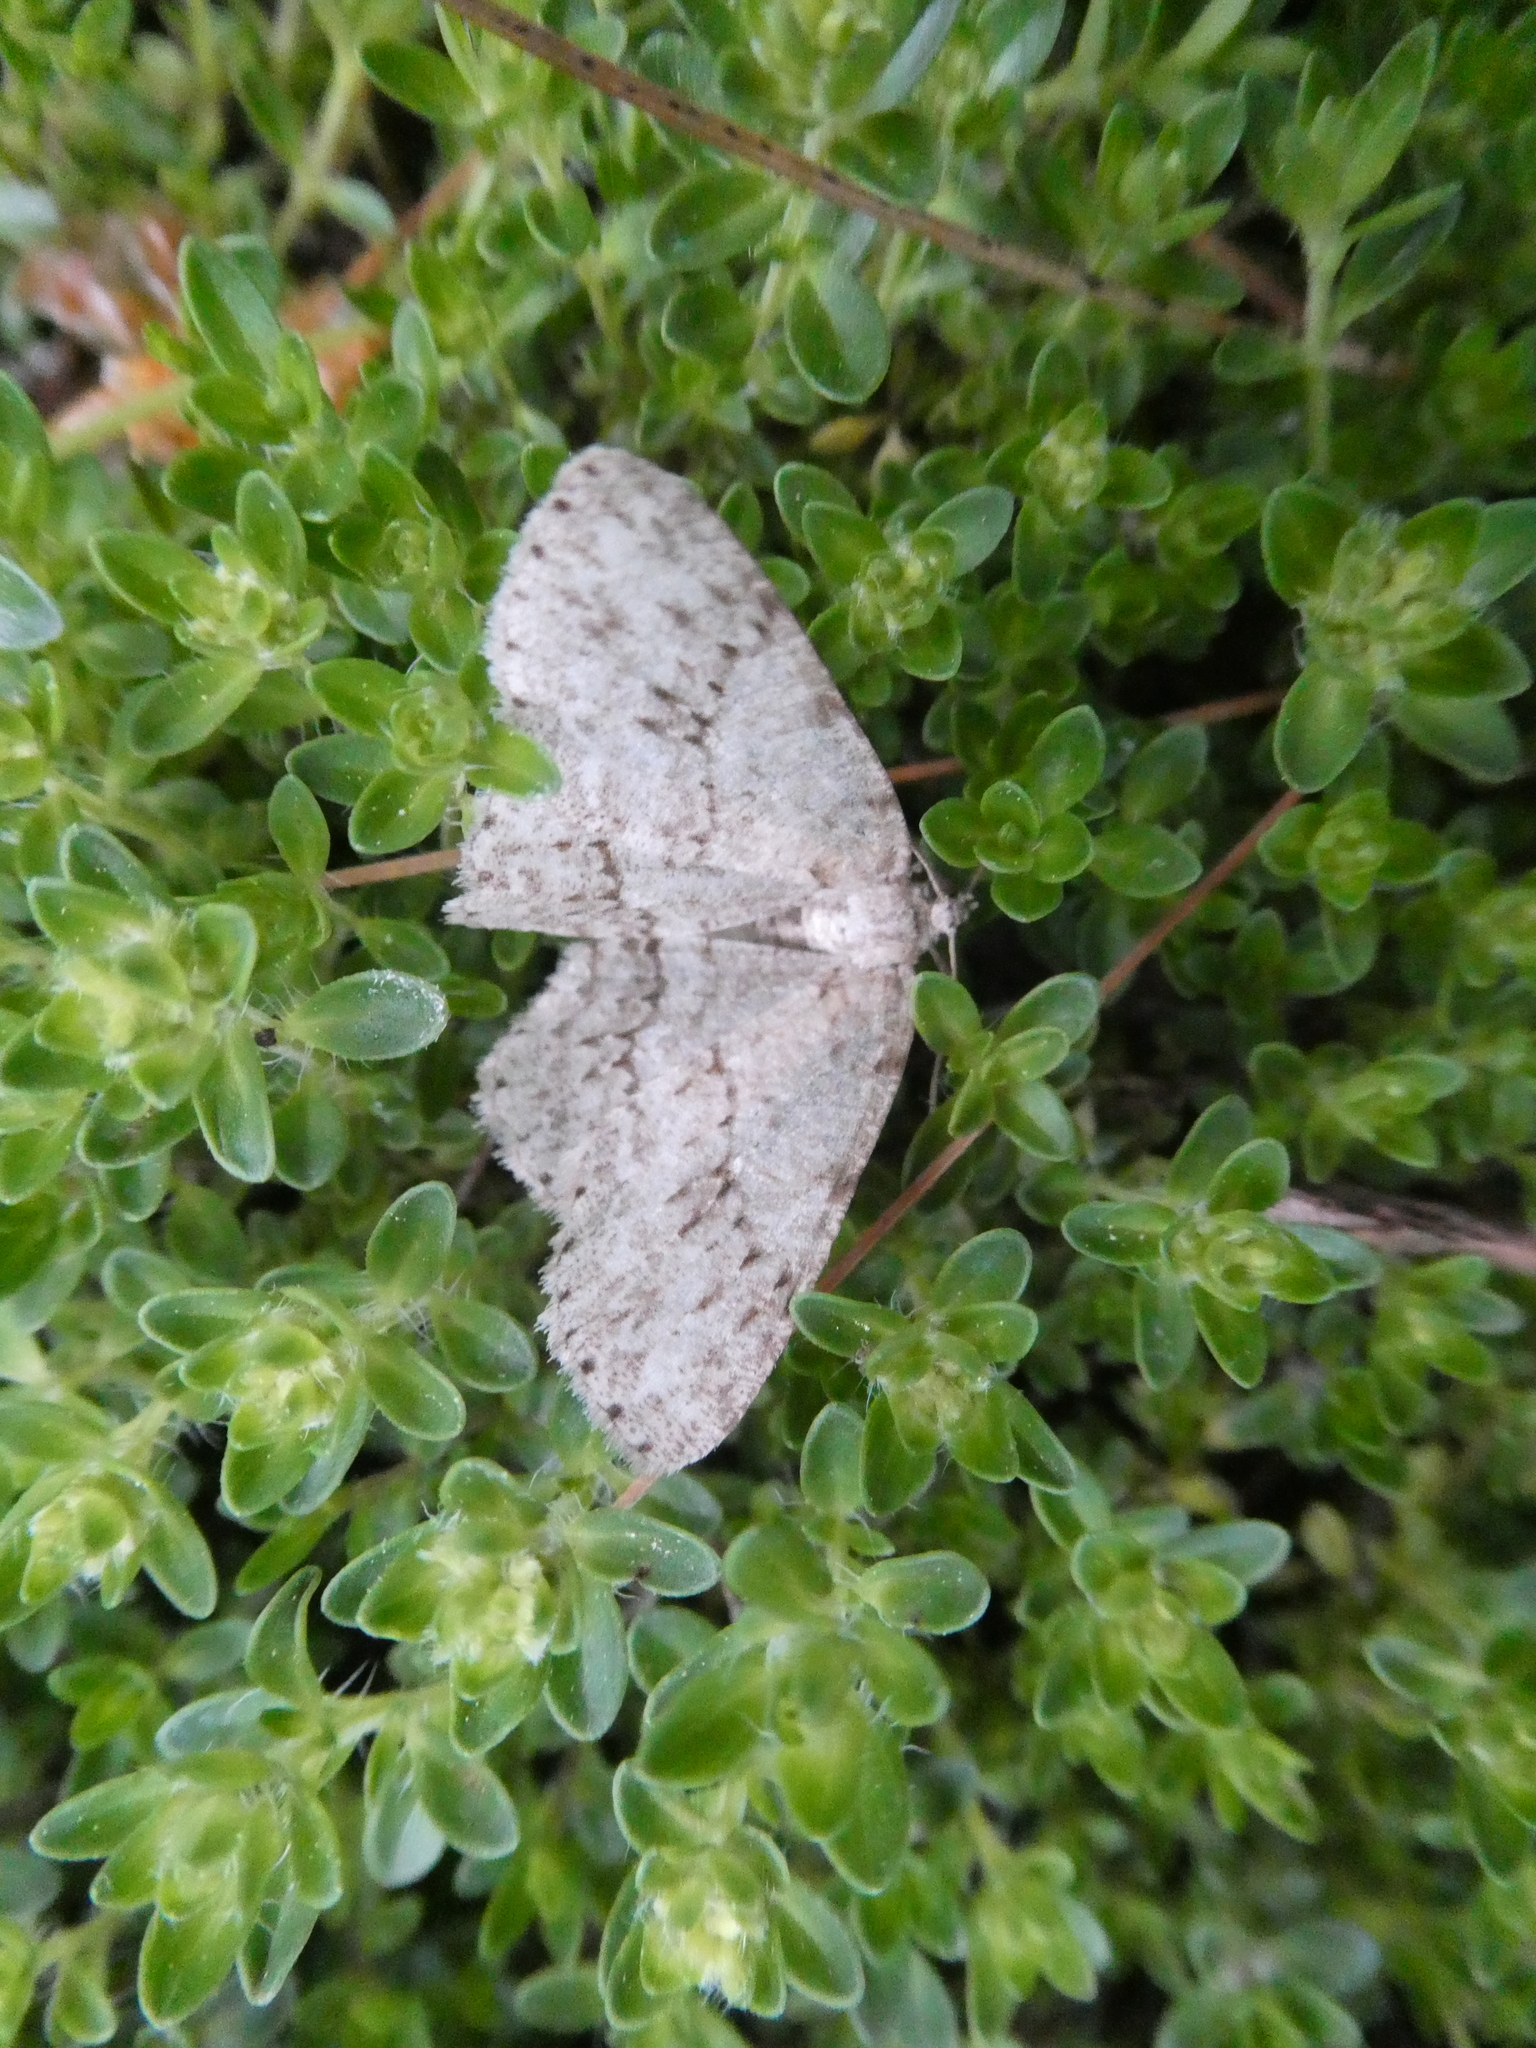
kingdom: Animalia
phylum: Arthropoda
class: Insecta
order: Lepidoptera
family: Geometridae
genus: Ectropis
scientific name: Ectropis crepuscularia
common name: Engrailed
